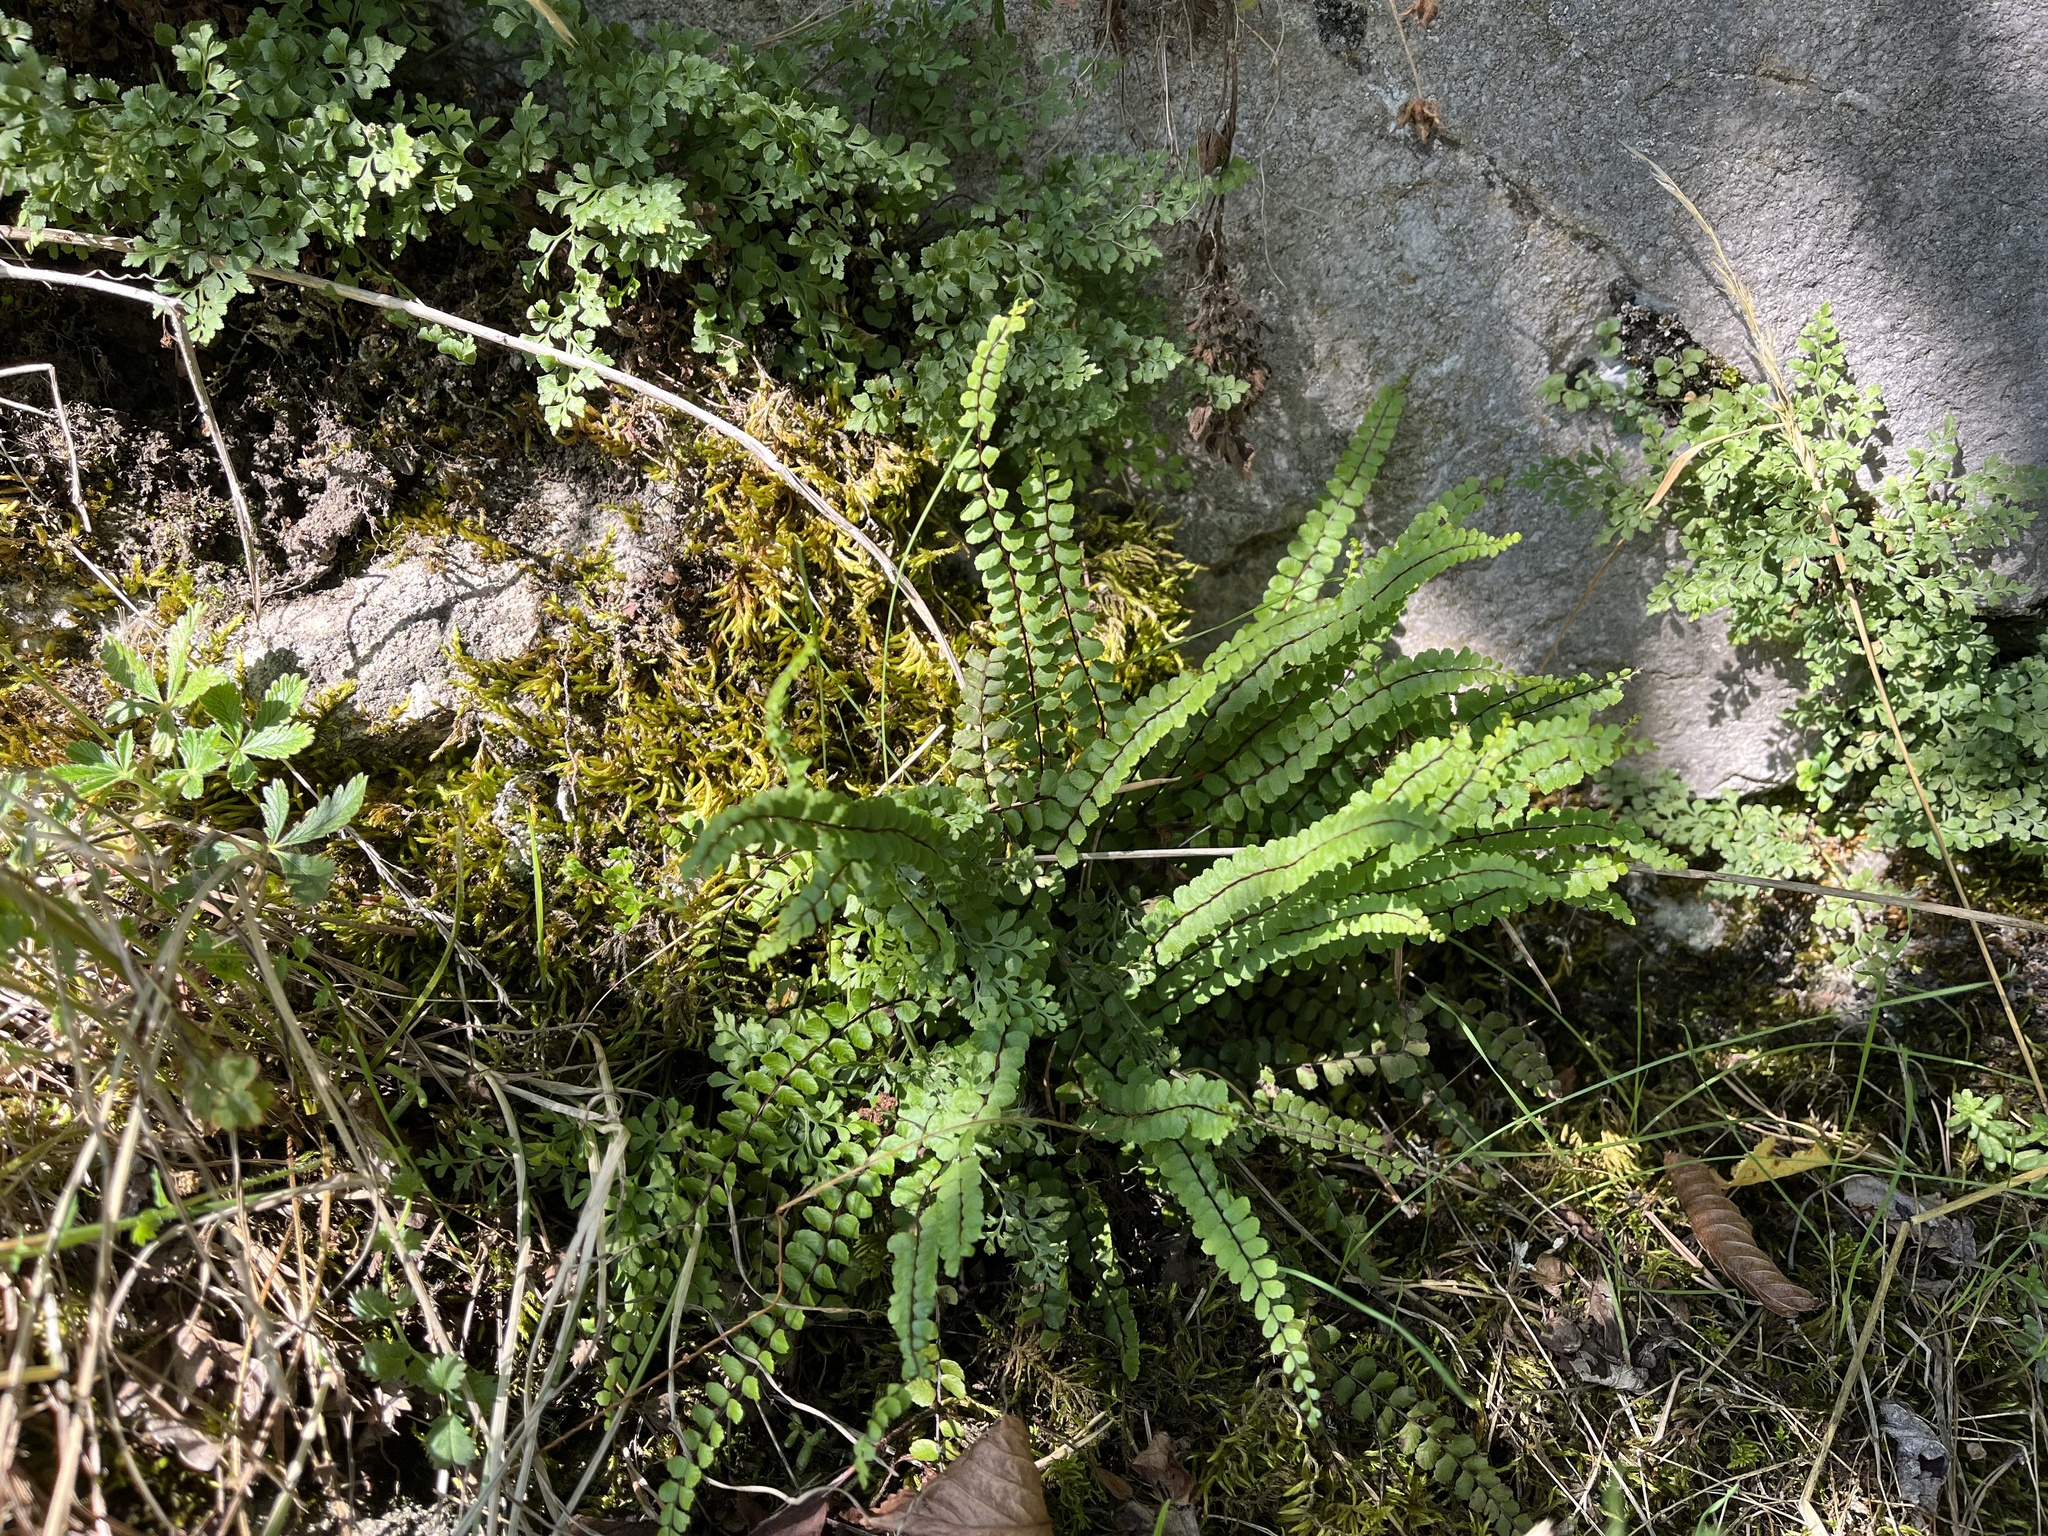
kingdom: Plantae
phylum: Tracheophyta
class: Polypodiopsida
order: Polypodiales
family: Aspleniaceae
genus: Asplenium
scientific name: Asplenium trichomanes
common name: Maidenhair spleenwort
